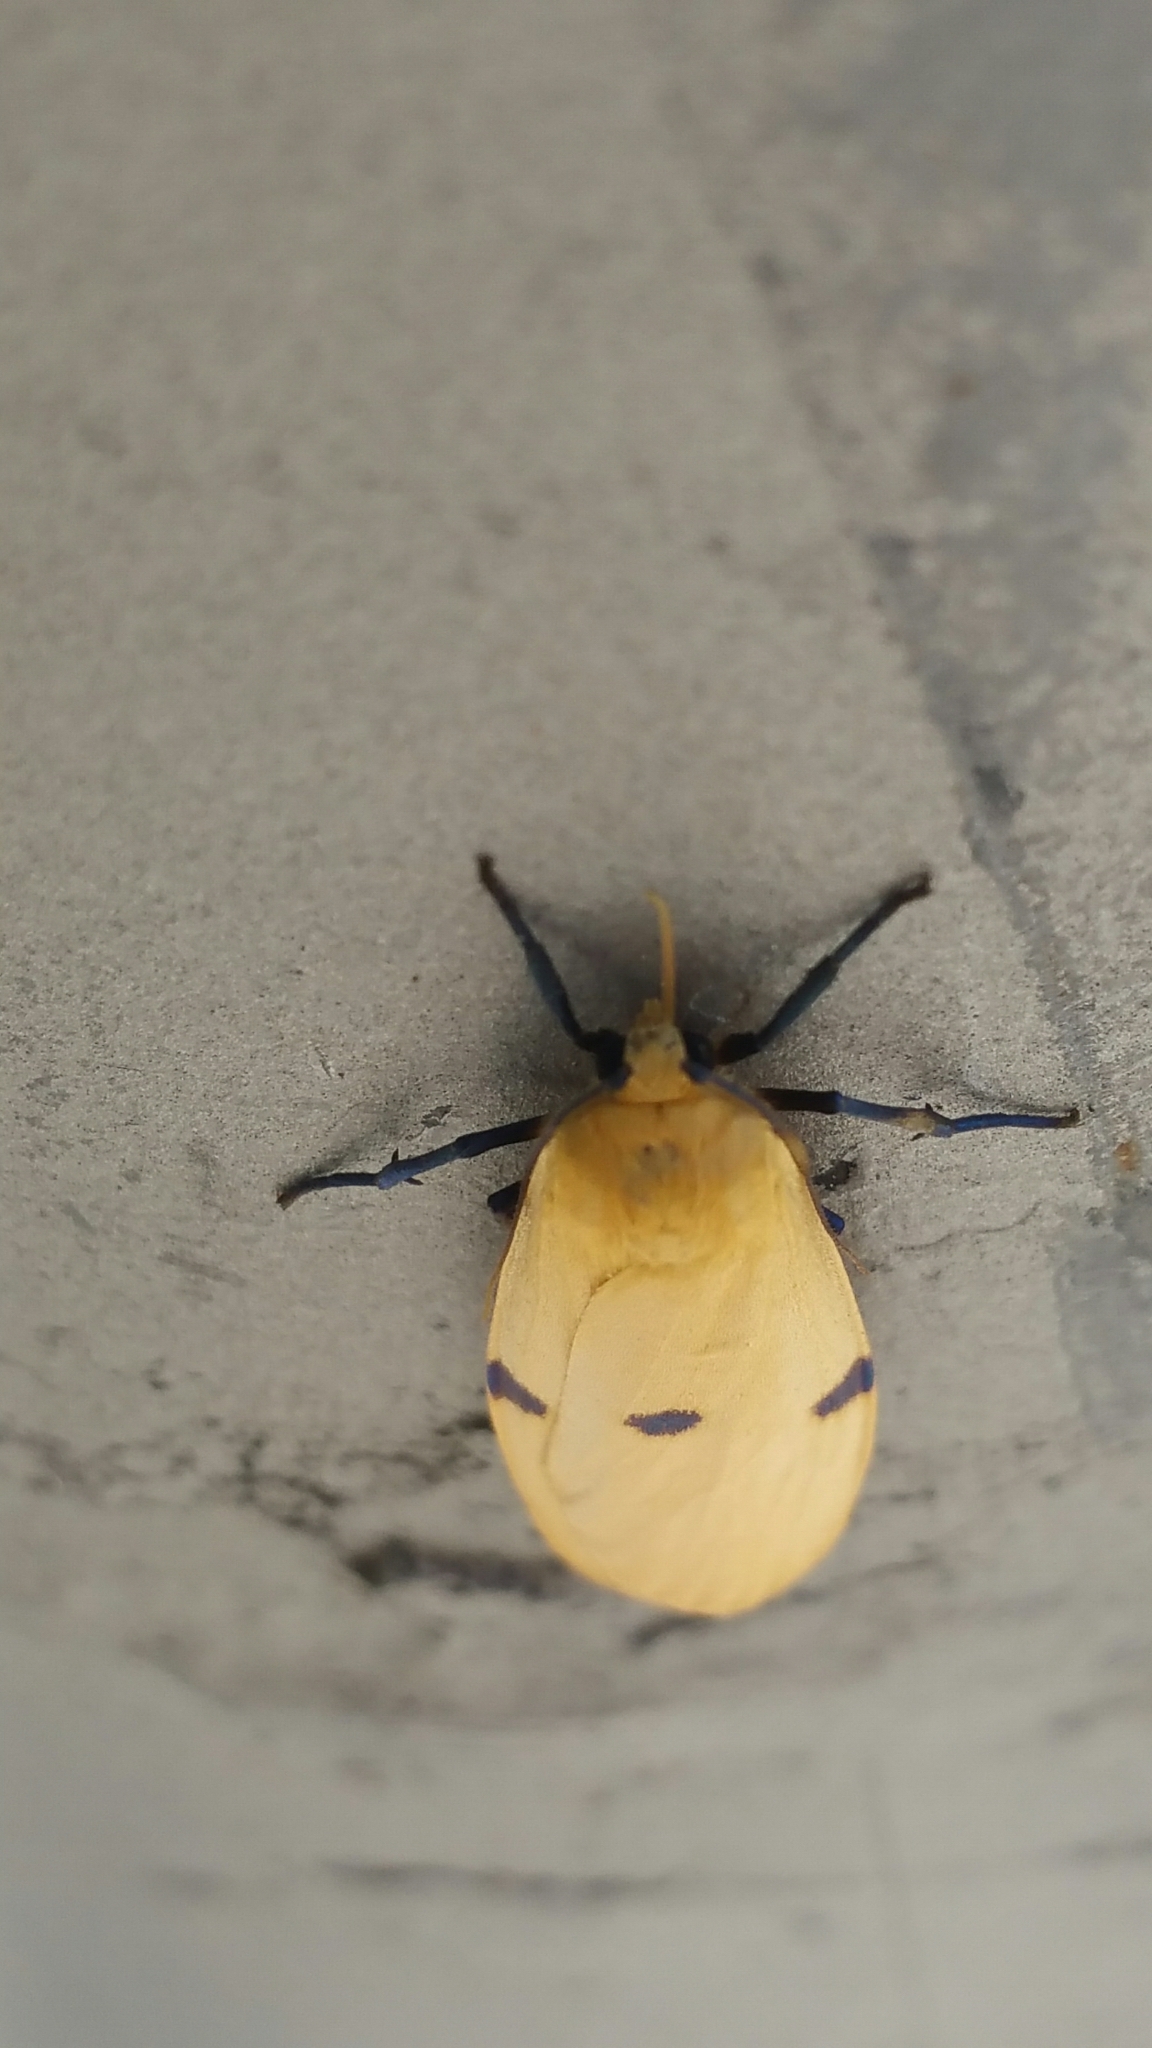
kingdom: Animalia
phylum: Arthropoda
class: Insecta
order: Lepidoptera
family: Erebidae
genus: Lithosia
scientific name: Lithosia quadra
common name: Four-spotted footman
